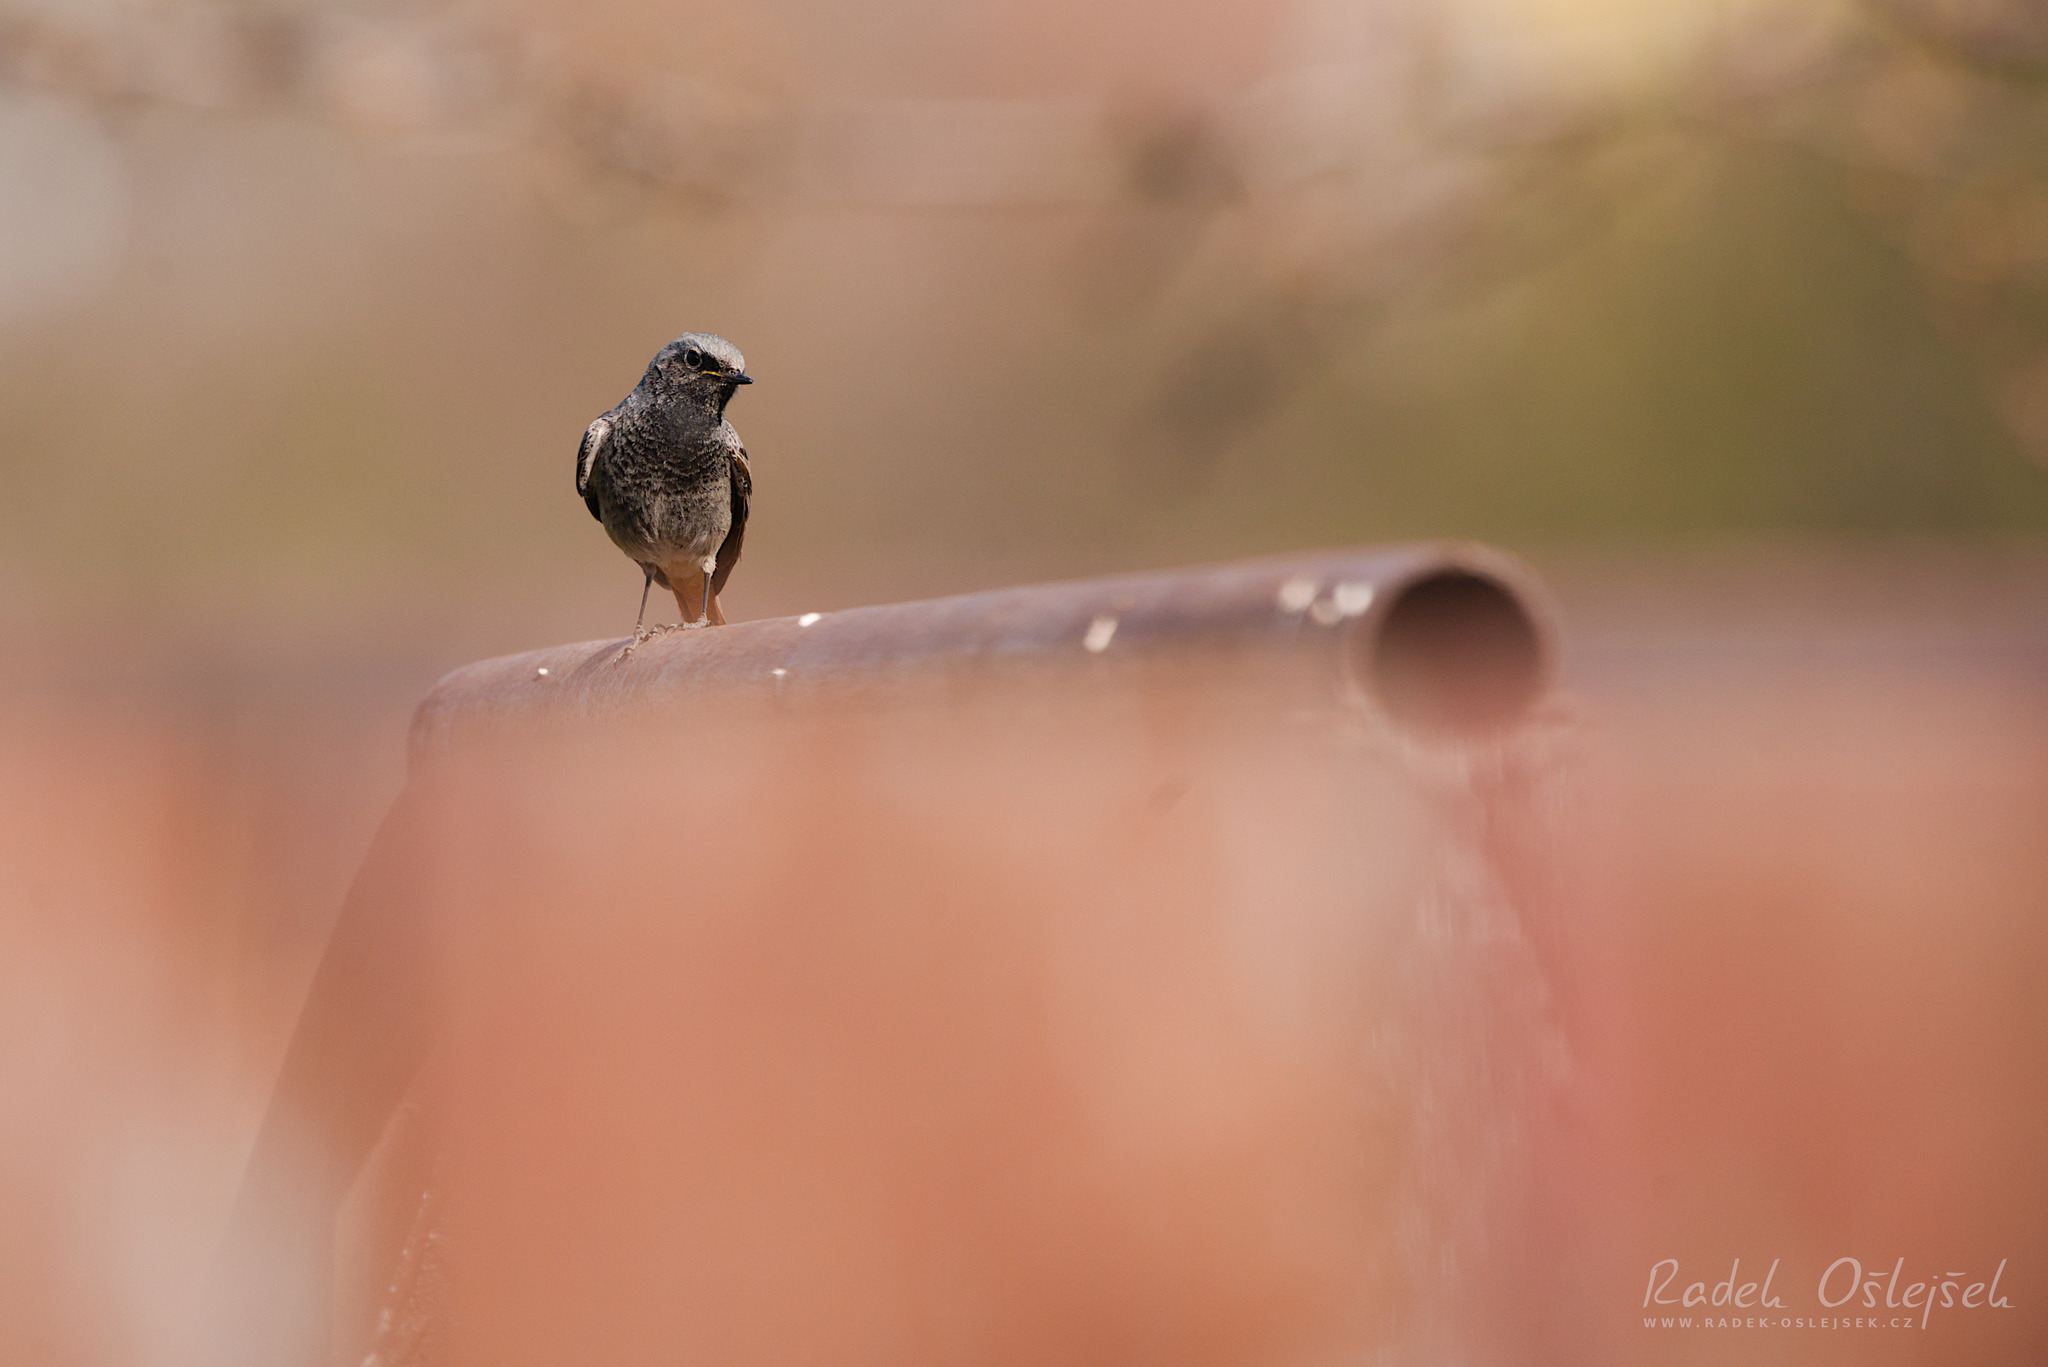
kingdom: Animalia
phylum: Chordata
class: Aves
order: Passeriformes
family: Muscicapidae
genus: Phoenicurus
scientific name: Phoenicurus ochruros
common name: Black redstart
